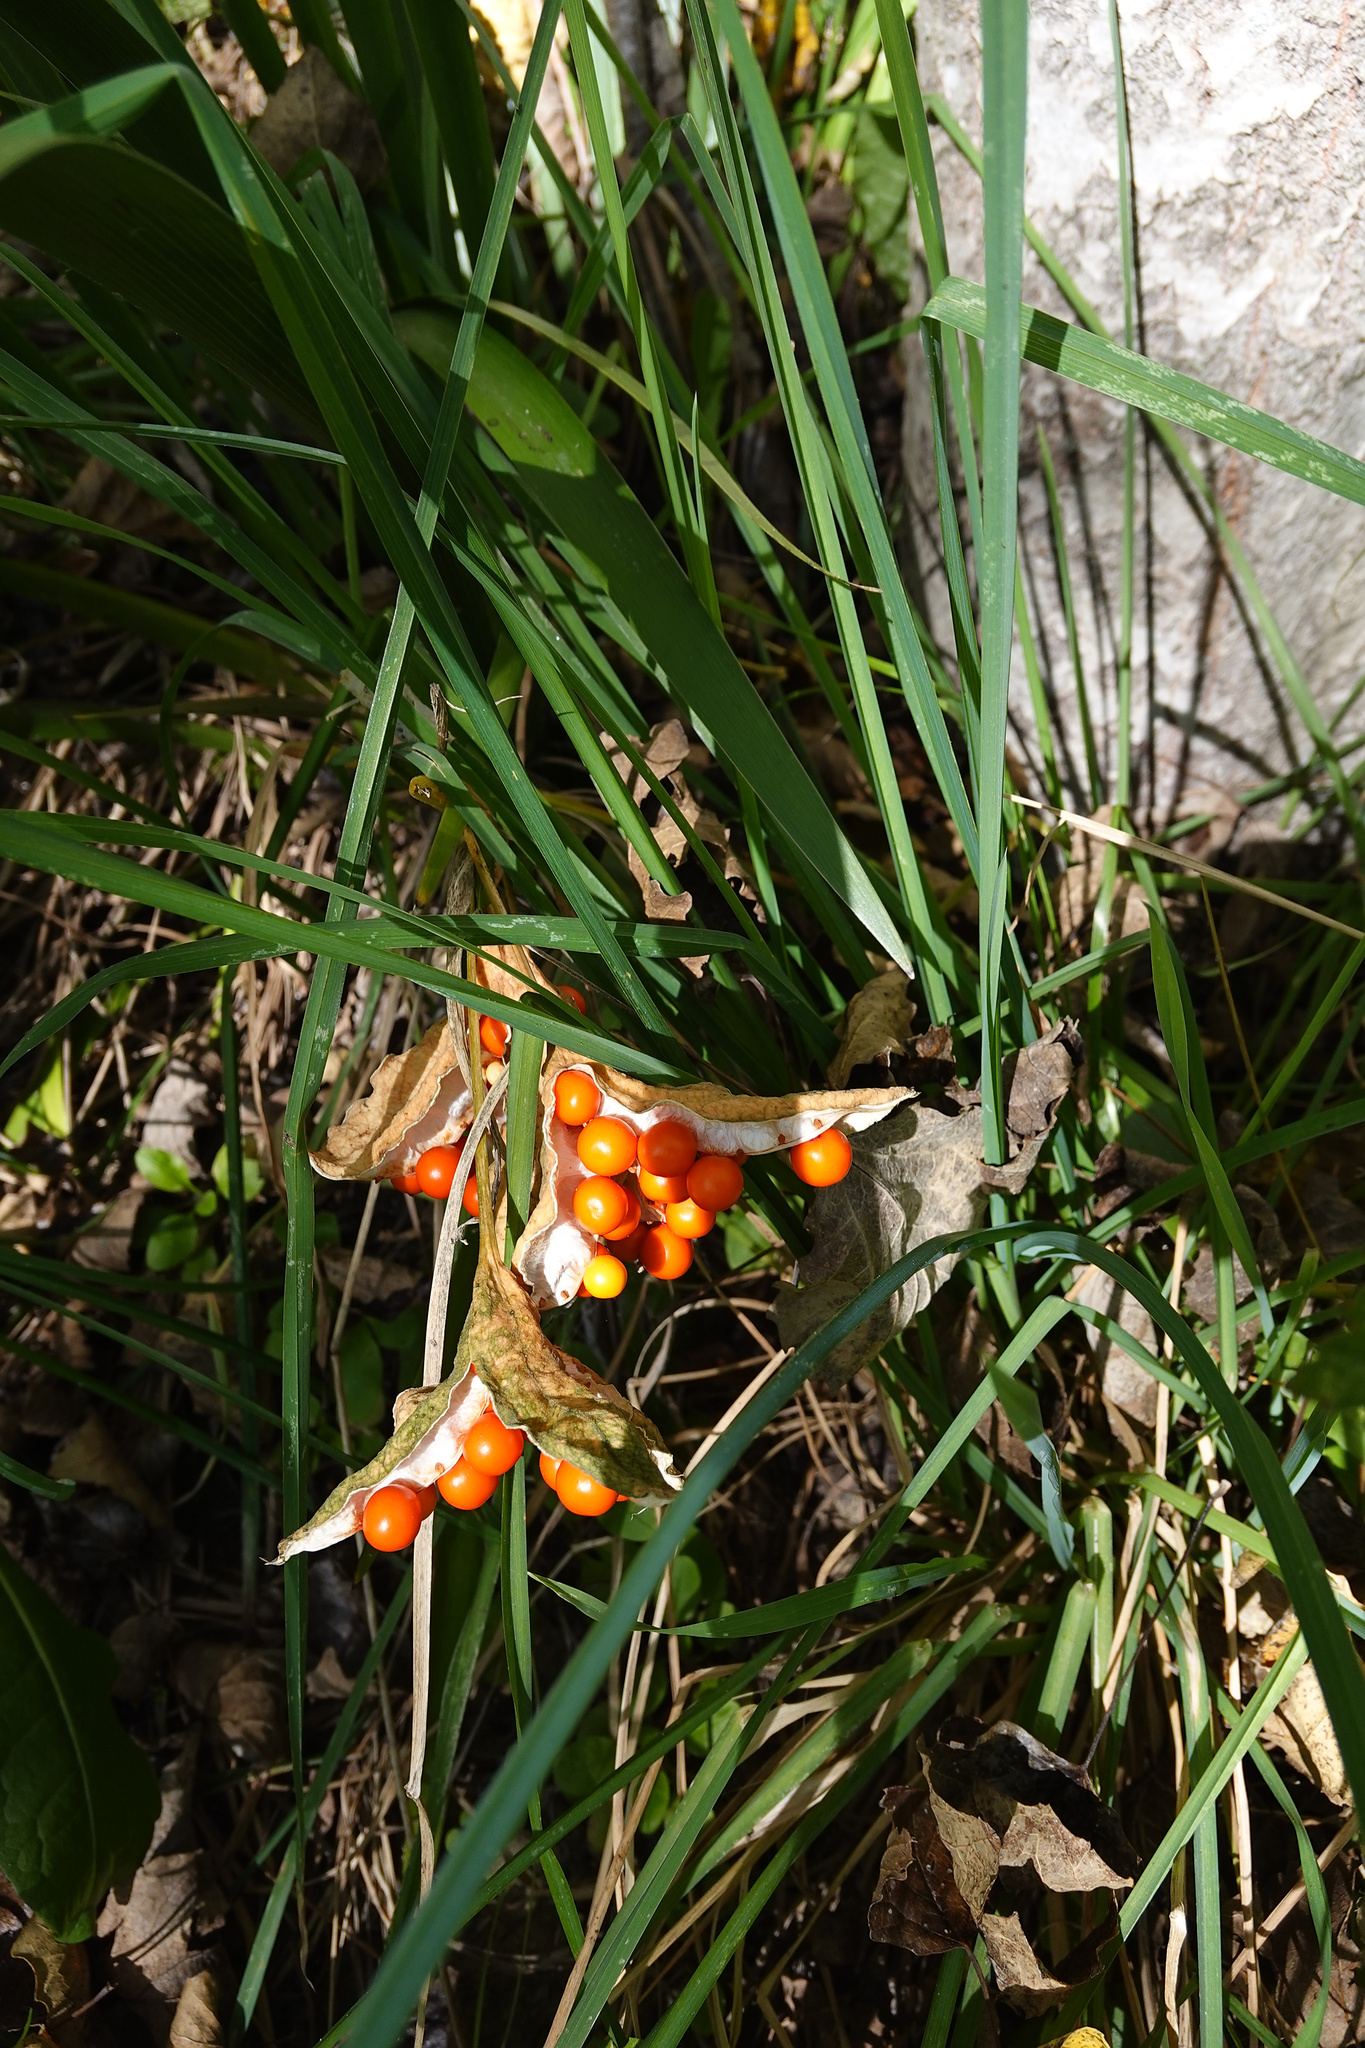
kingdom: Plantae
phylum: Tracheophyta
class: Liliopsida
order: Asparagales
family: Iridaceae
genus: Iris
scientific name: Iris foetidissima
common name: Stinking iris
